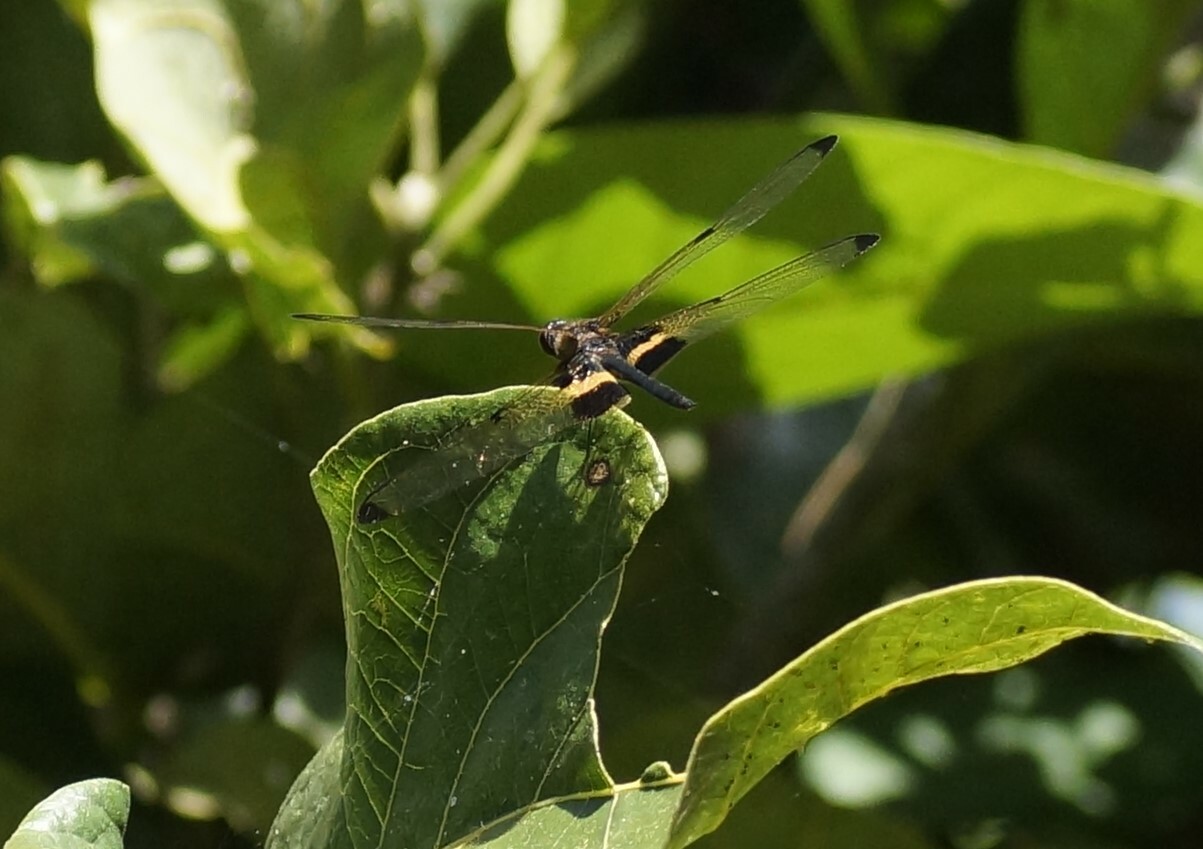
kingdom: Animalia
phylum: Arthropoda
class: Insecta
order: Odonata
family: Libellulidae
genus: Rhyothemis
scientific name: Rhyothemis phyllis
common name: Yellow-barred flutterer
